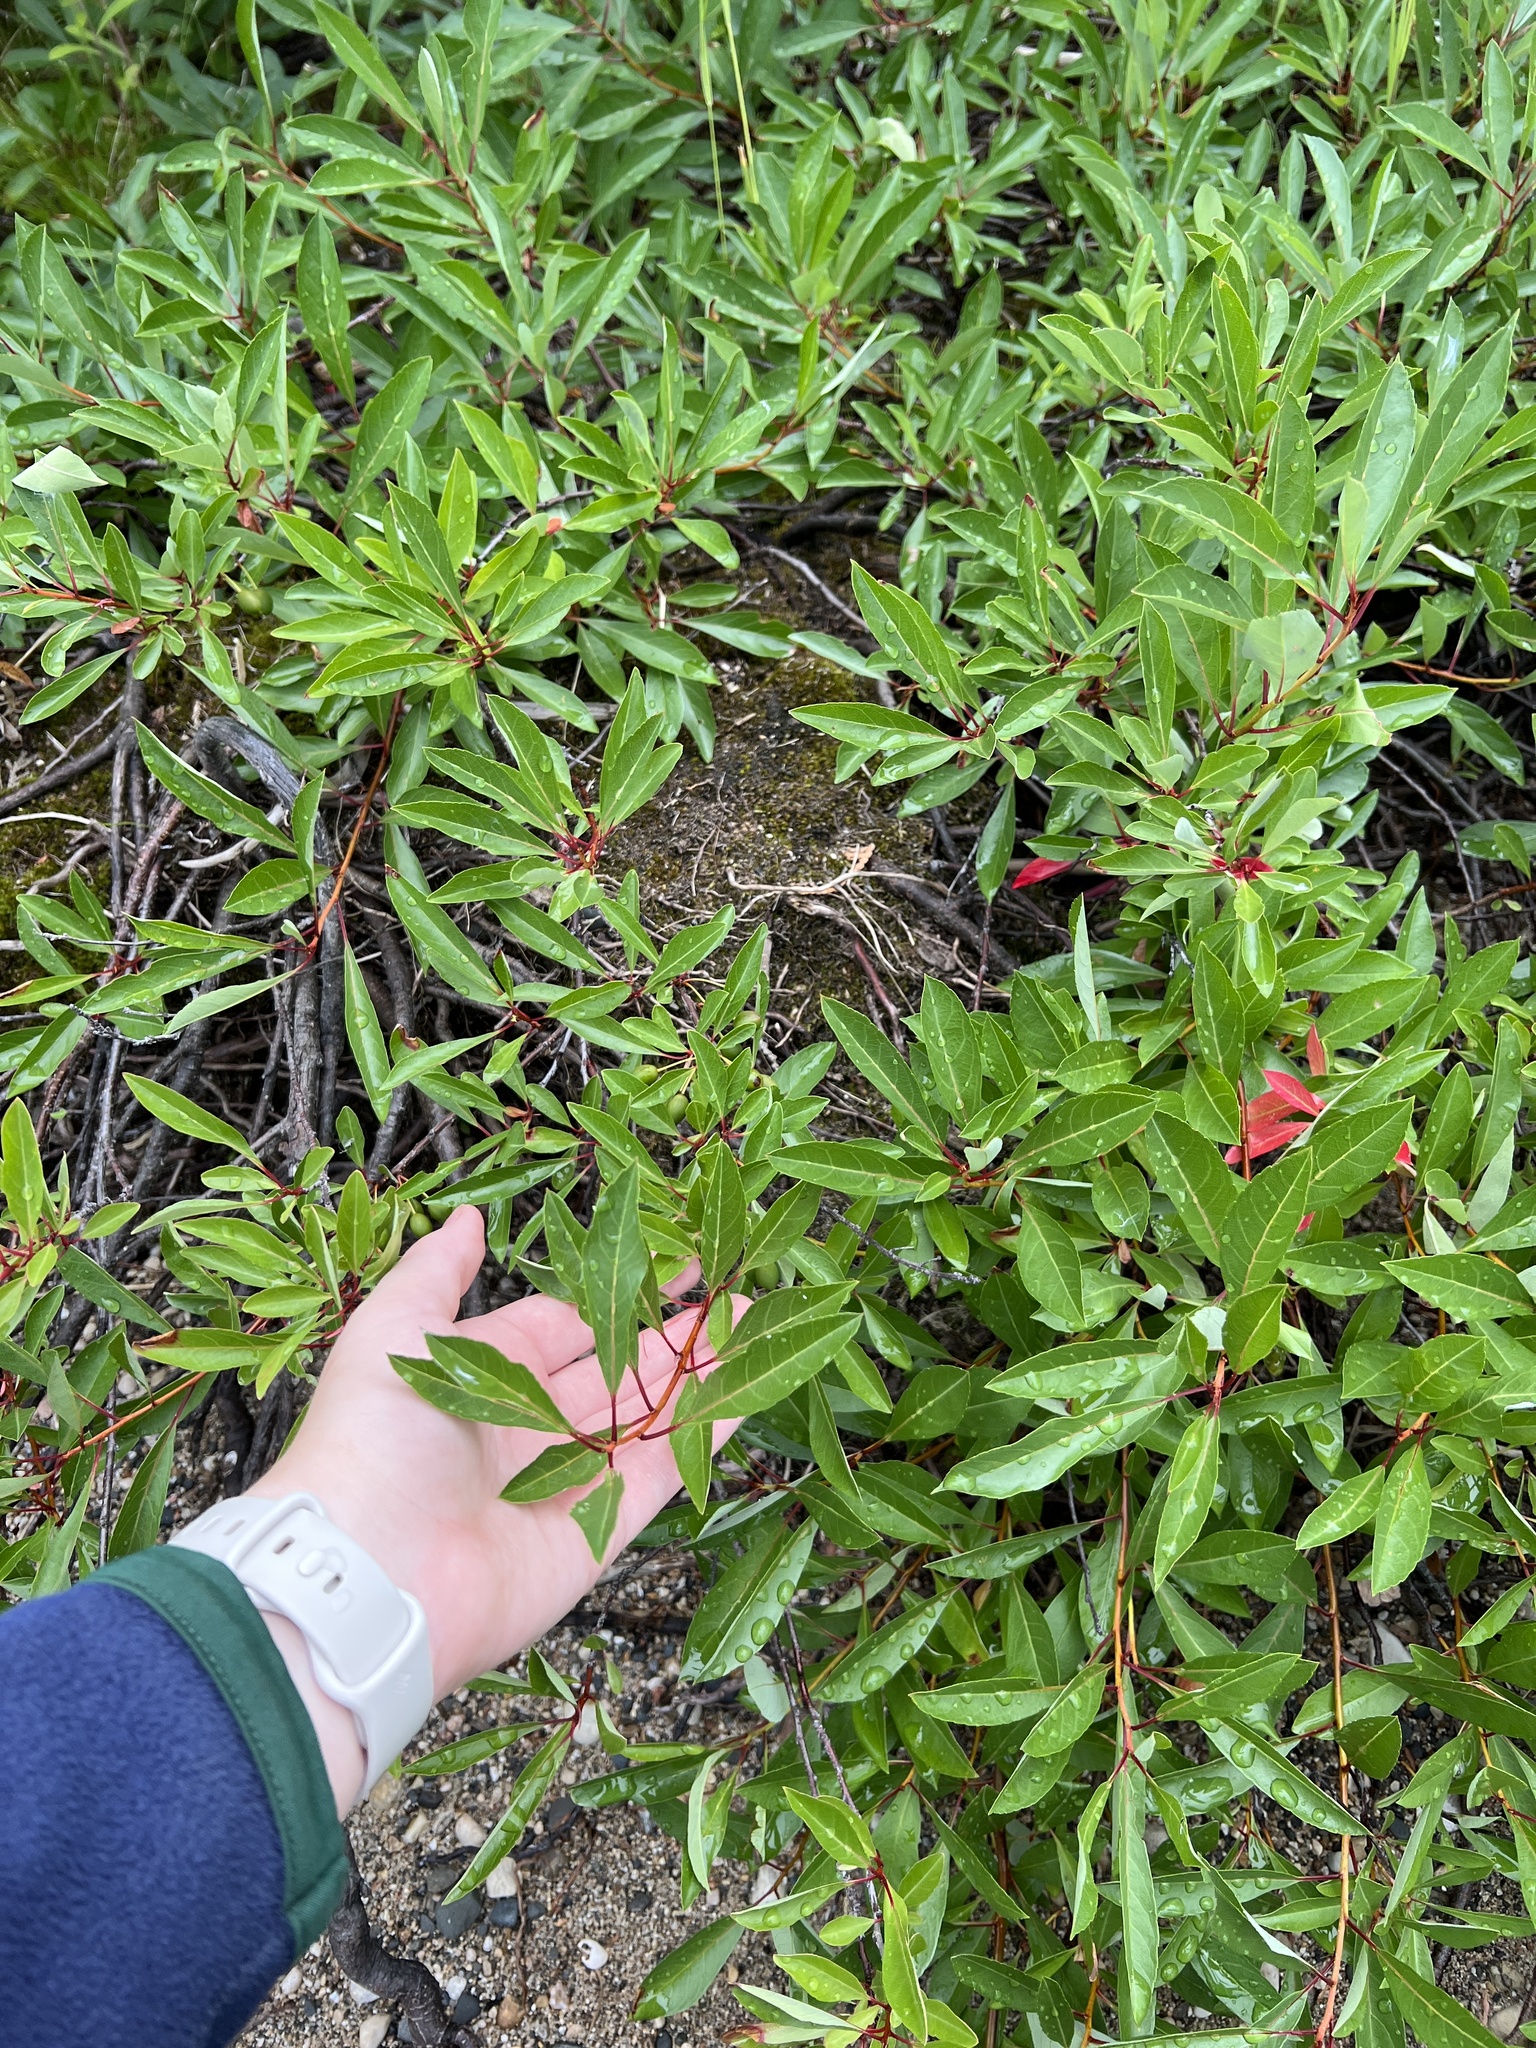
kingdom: Plantae
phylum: Tracheophyta
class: Magnoliopsida
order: Rosales
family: Rosaceae
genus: Prunus
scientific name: Prunus pumila
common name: Dwarf cherry
